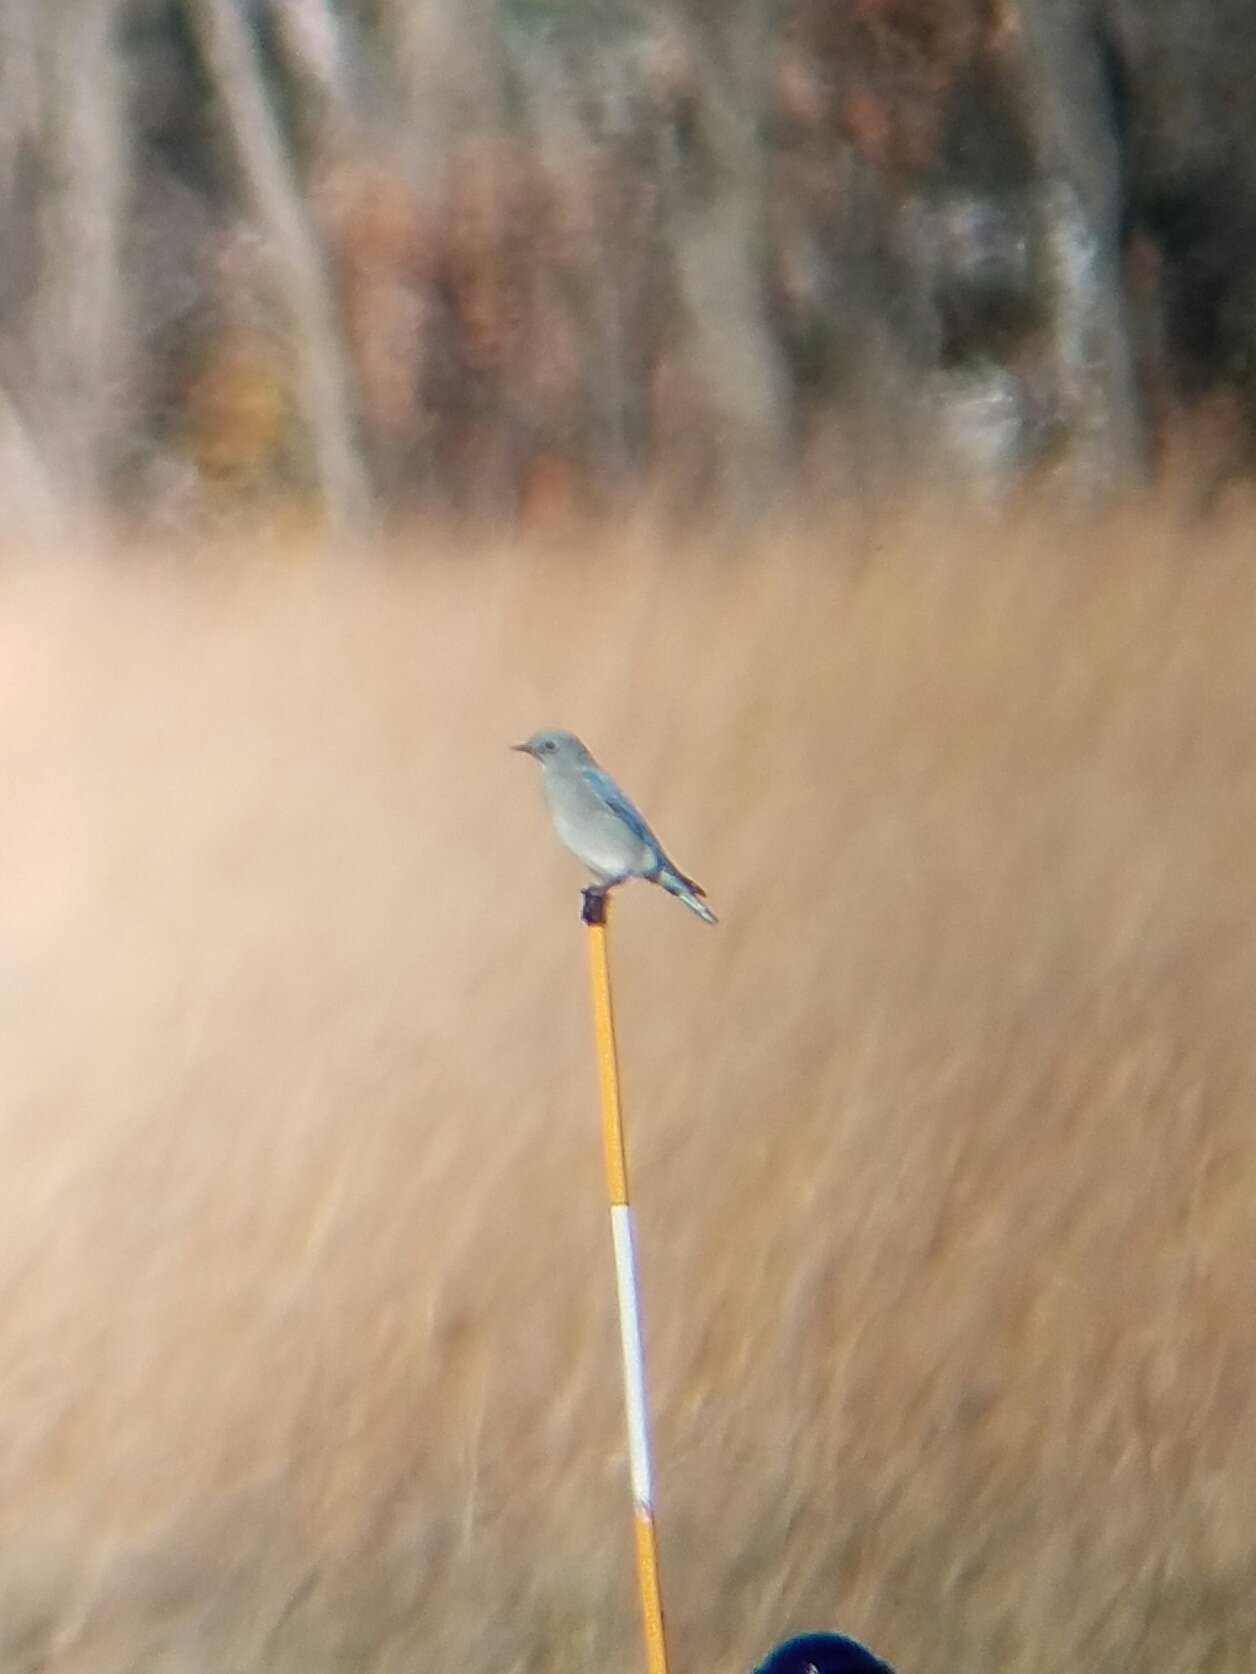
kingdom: Animalia
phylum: Chordata
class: Aves
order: Passeriformes
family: Turdidae
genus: Sialia
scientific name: Sialia currucoides
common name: Mountain bluebird
